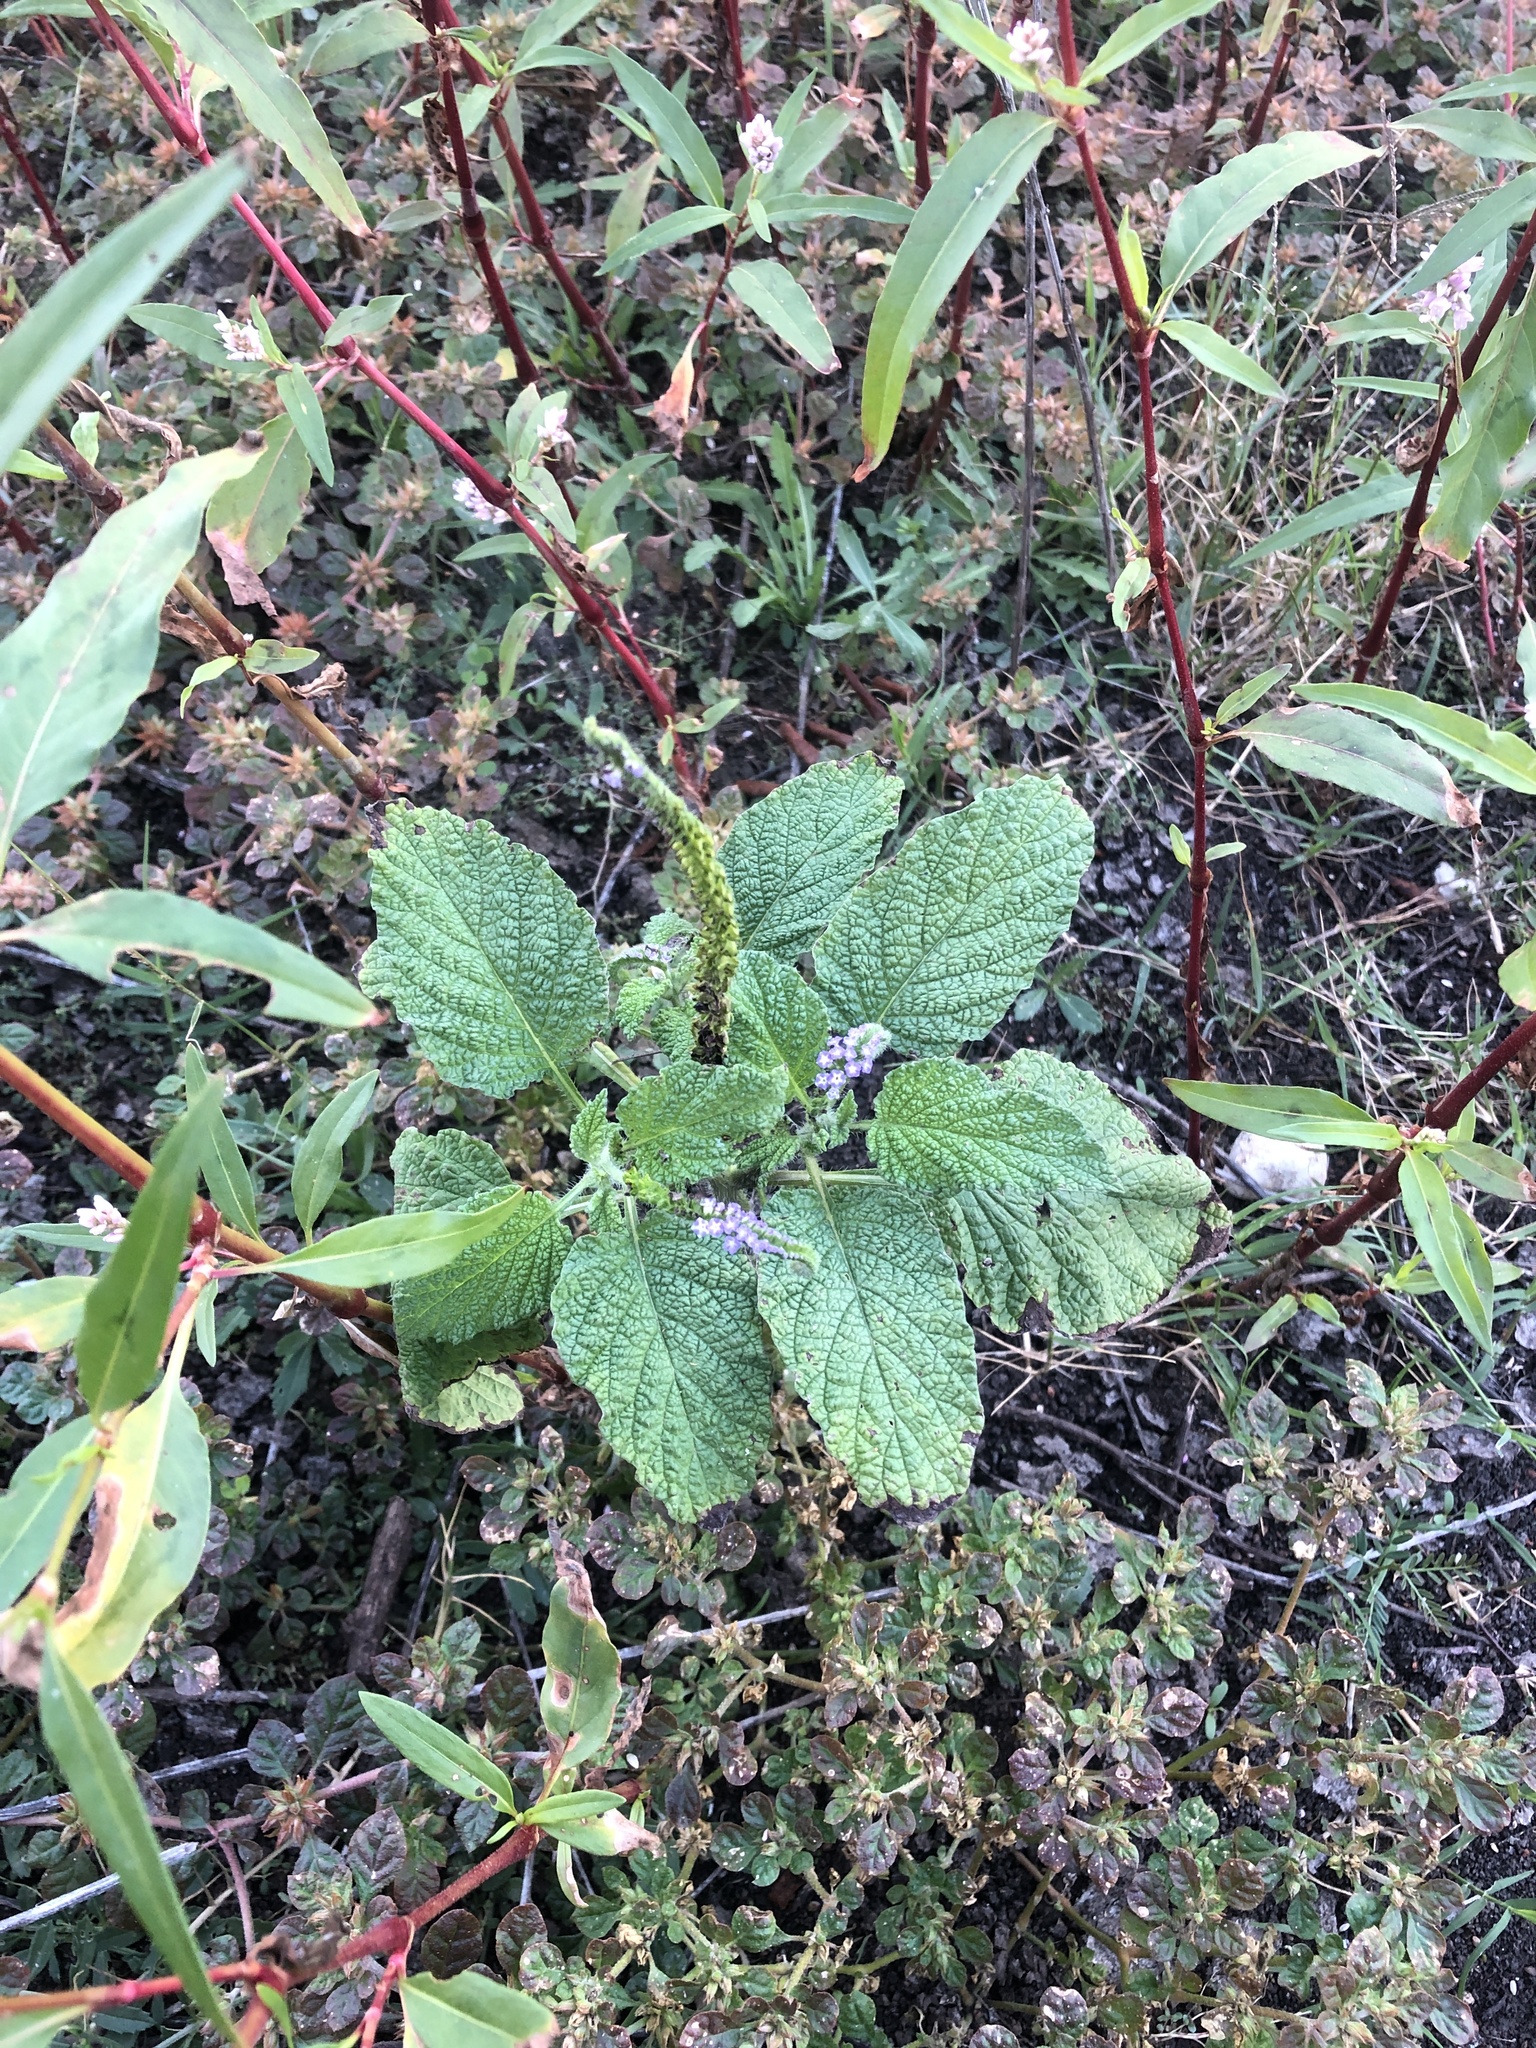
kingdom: Plantae
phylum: Tracheophyta
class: Magnoliopsida
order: Boraginales
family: Heliotropiaceae
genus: Heliotropium
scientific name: Heliotropium indicum
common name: Indian heliotrope
